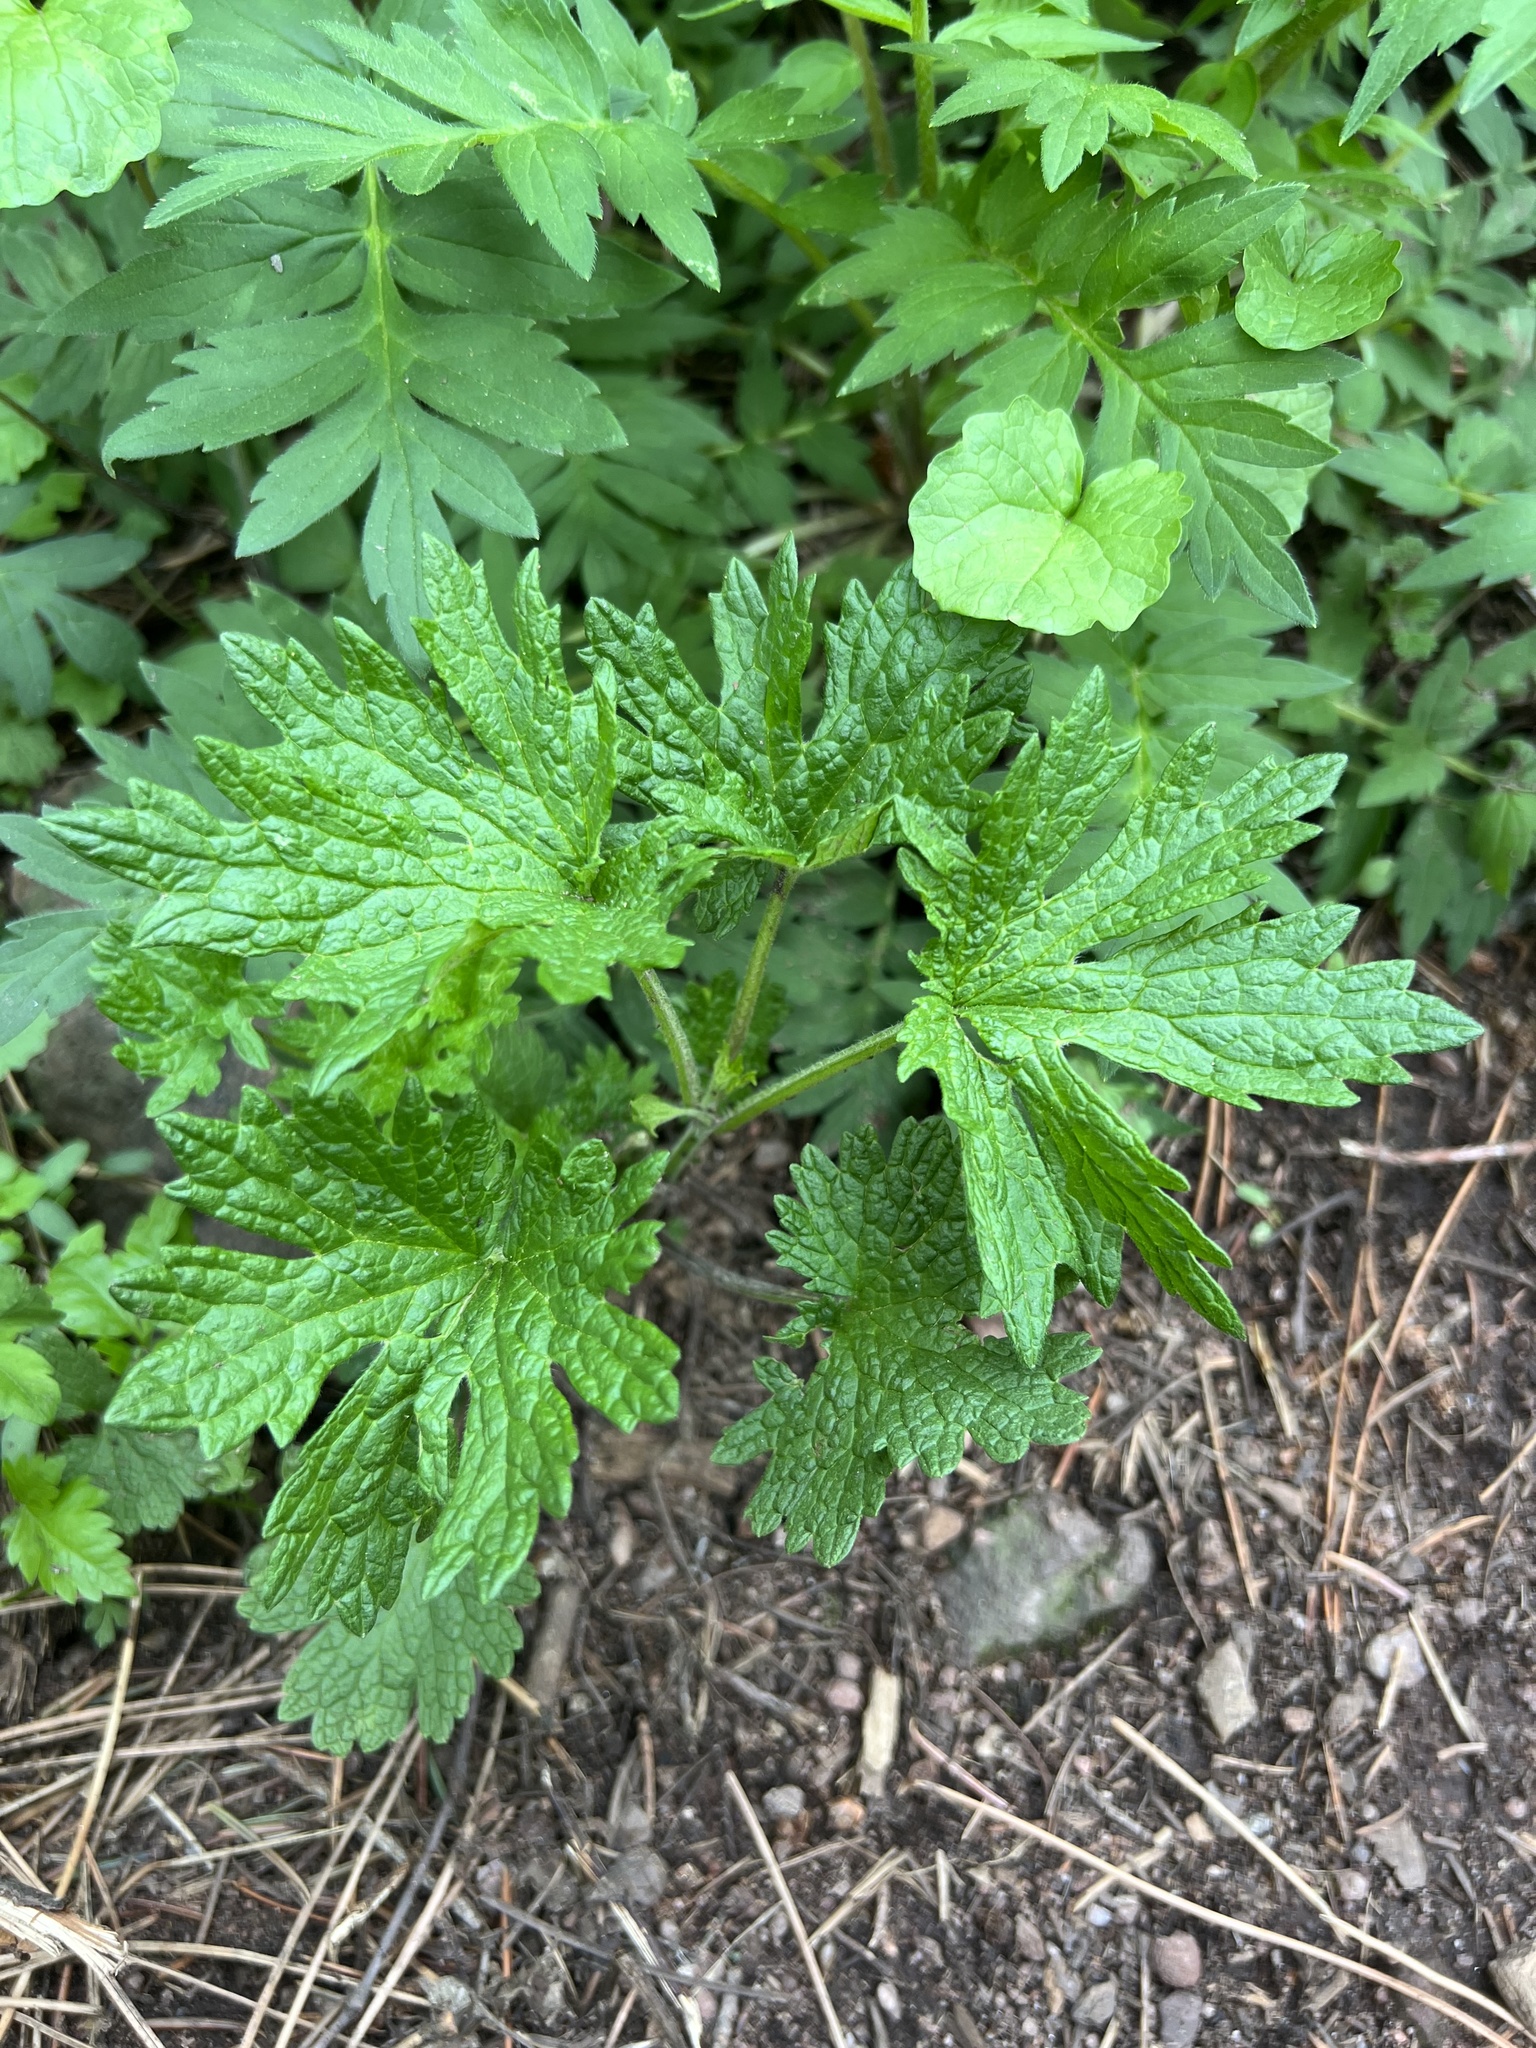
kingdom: Plantae
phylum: Tracheophyta
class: Magnoliopsida
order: Lamiales
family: Lamiaceae
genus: Leonurus
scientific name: Leonurus cardiaca
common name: Motherwort
